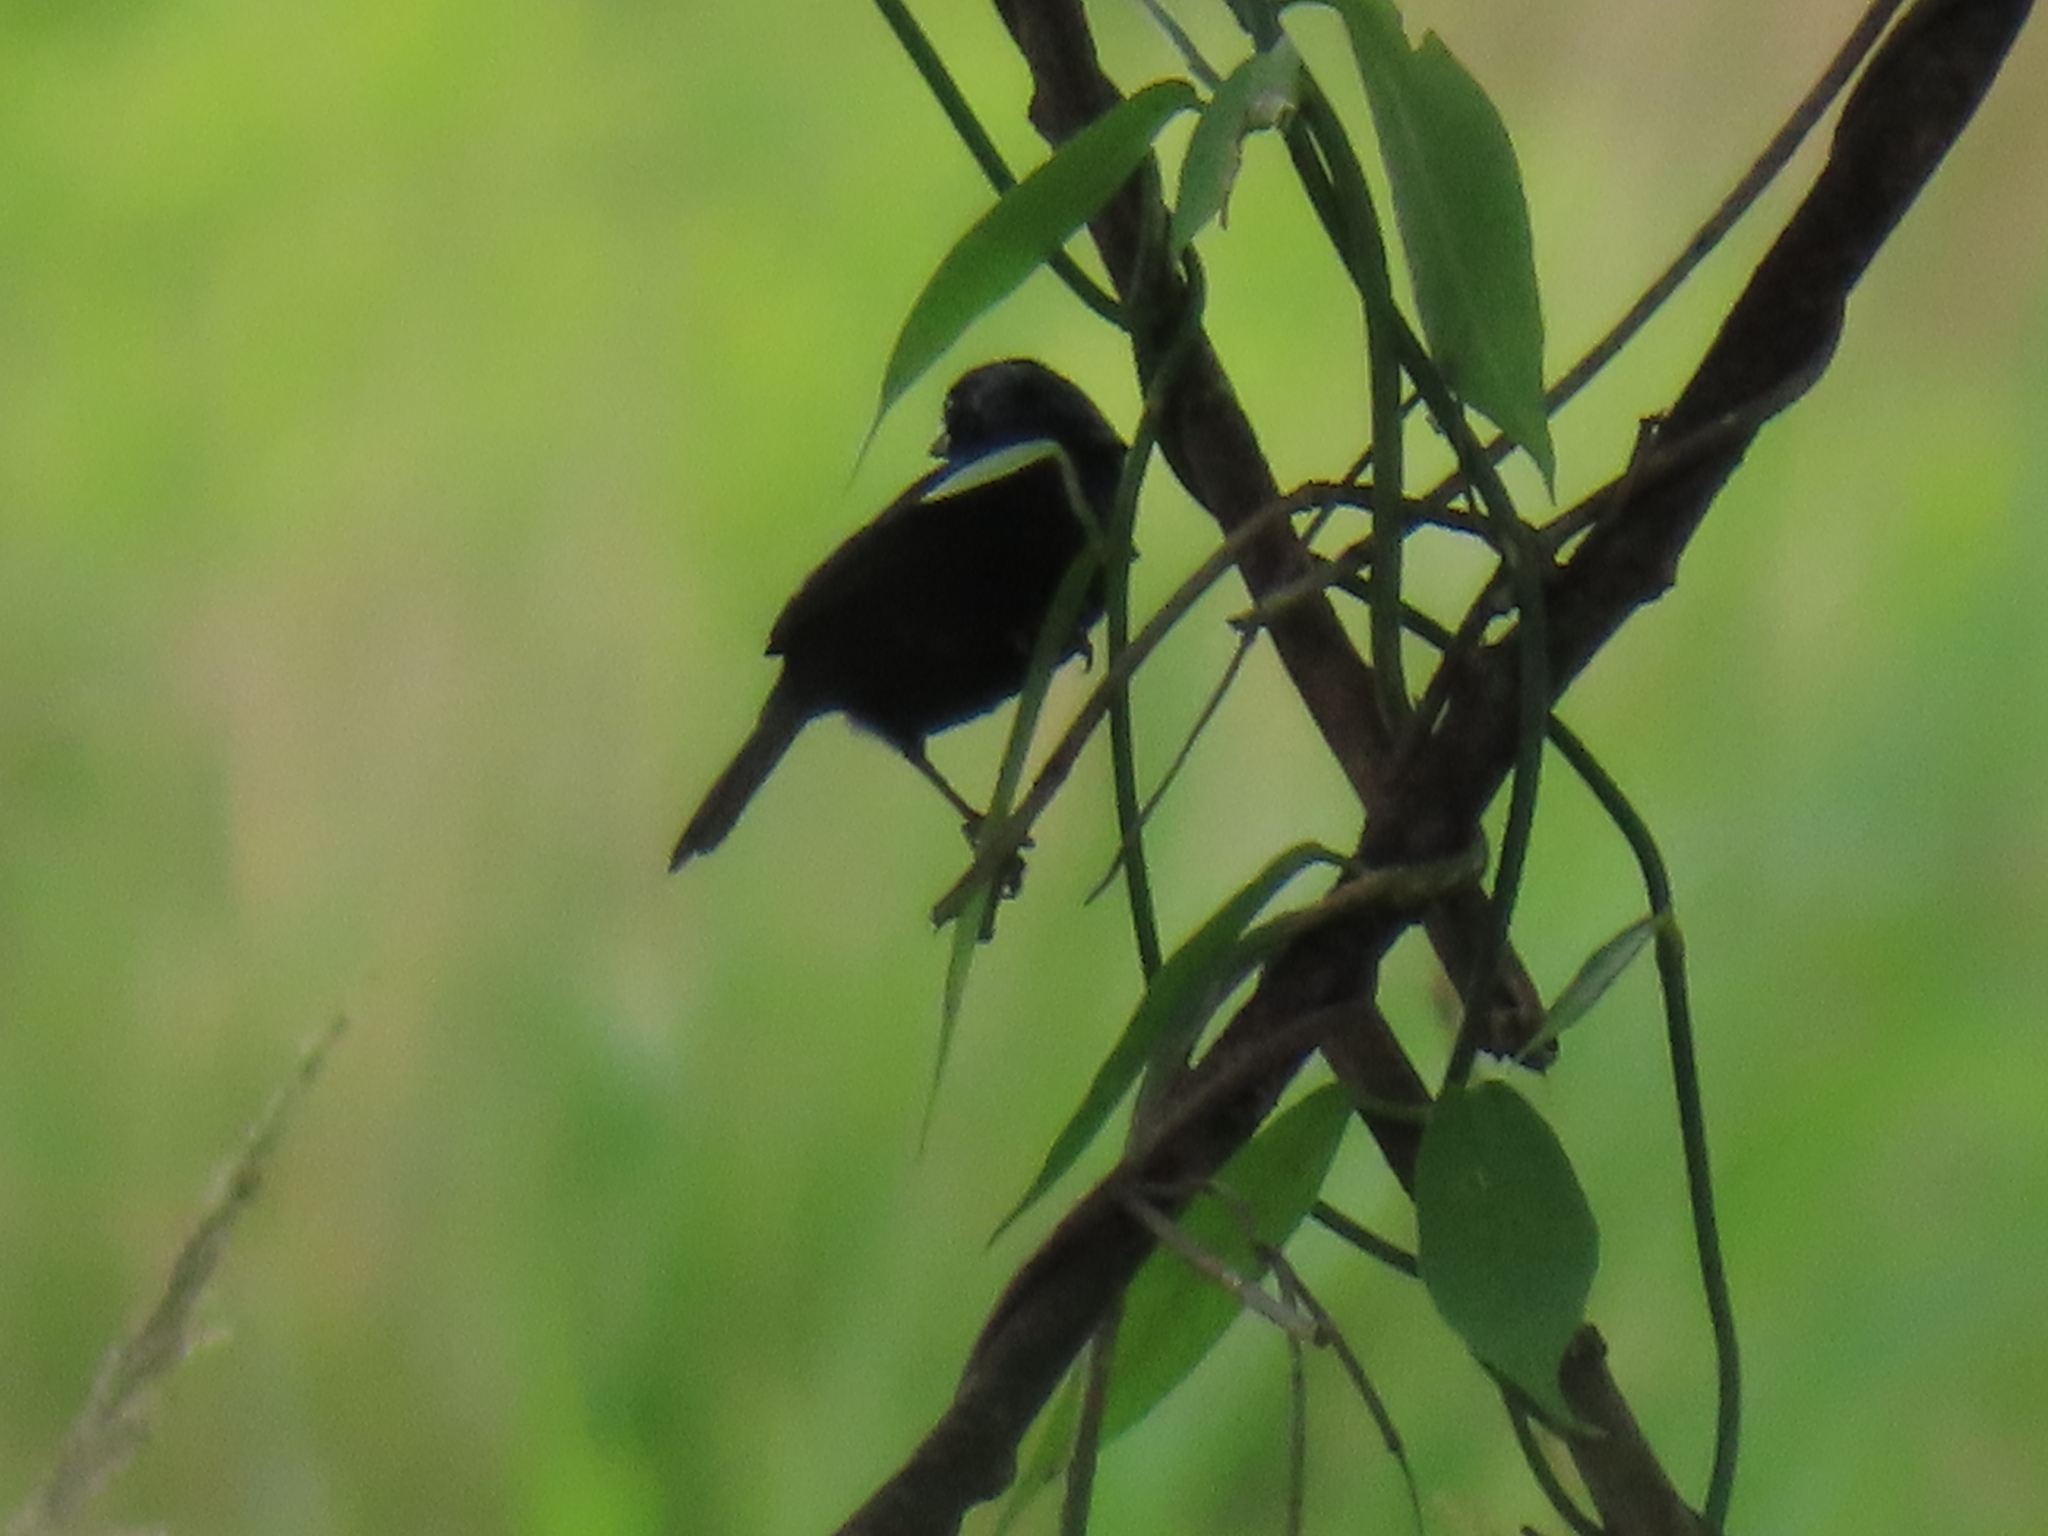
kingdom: Animalia
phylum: Chordata
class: Aves
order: Passeriformes
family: Thraupidae
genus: Volatinia
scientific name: Volatinia jacarina
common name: Blue-black grassquit
